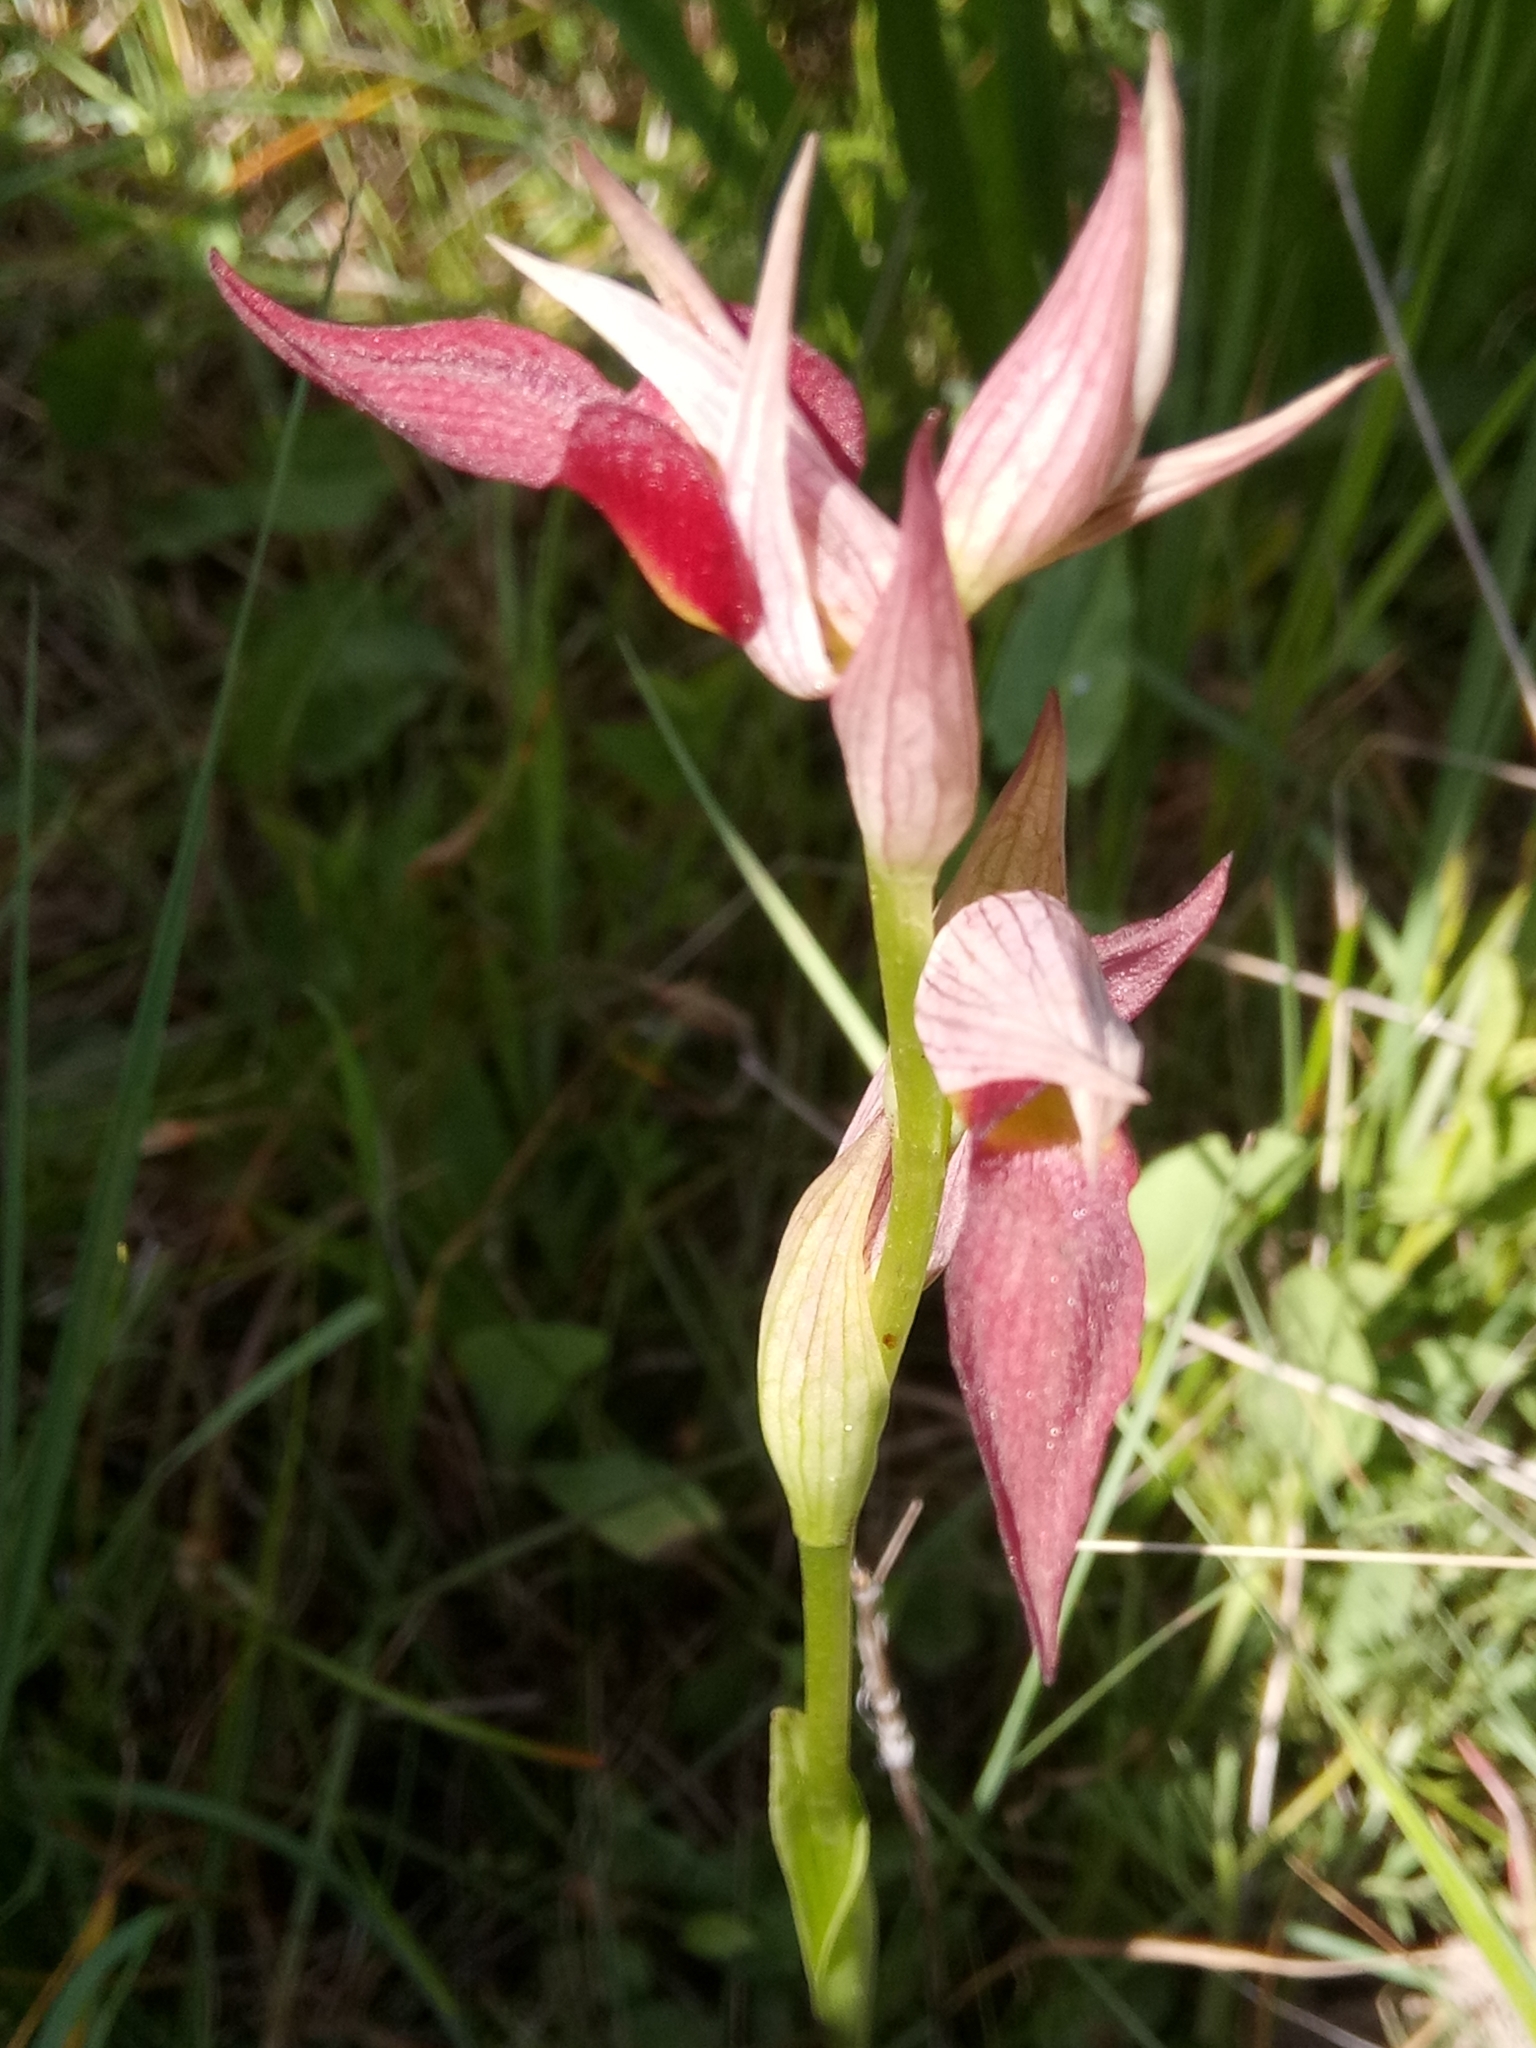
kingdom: Plantae
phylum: Tracheophyta
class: Liliopsida
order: Asparagales
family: Orchidaceae
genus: Serapias
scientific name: Serapias lingua
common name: Tongue-orchid
